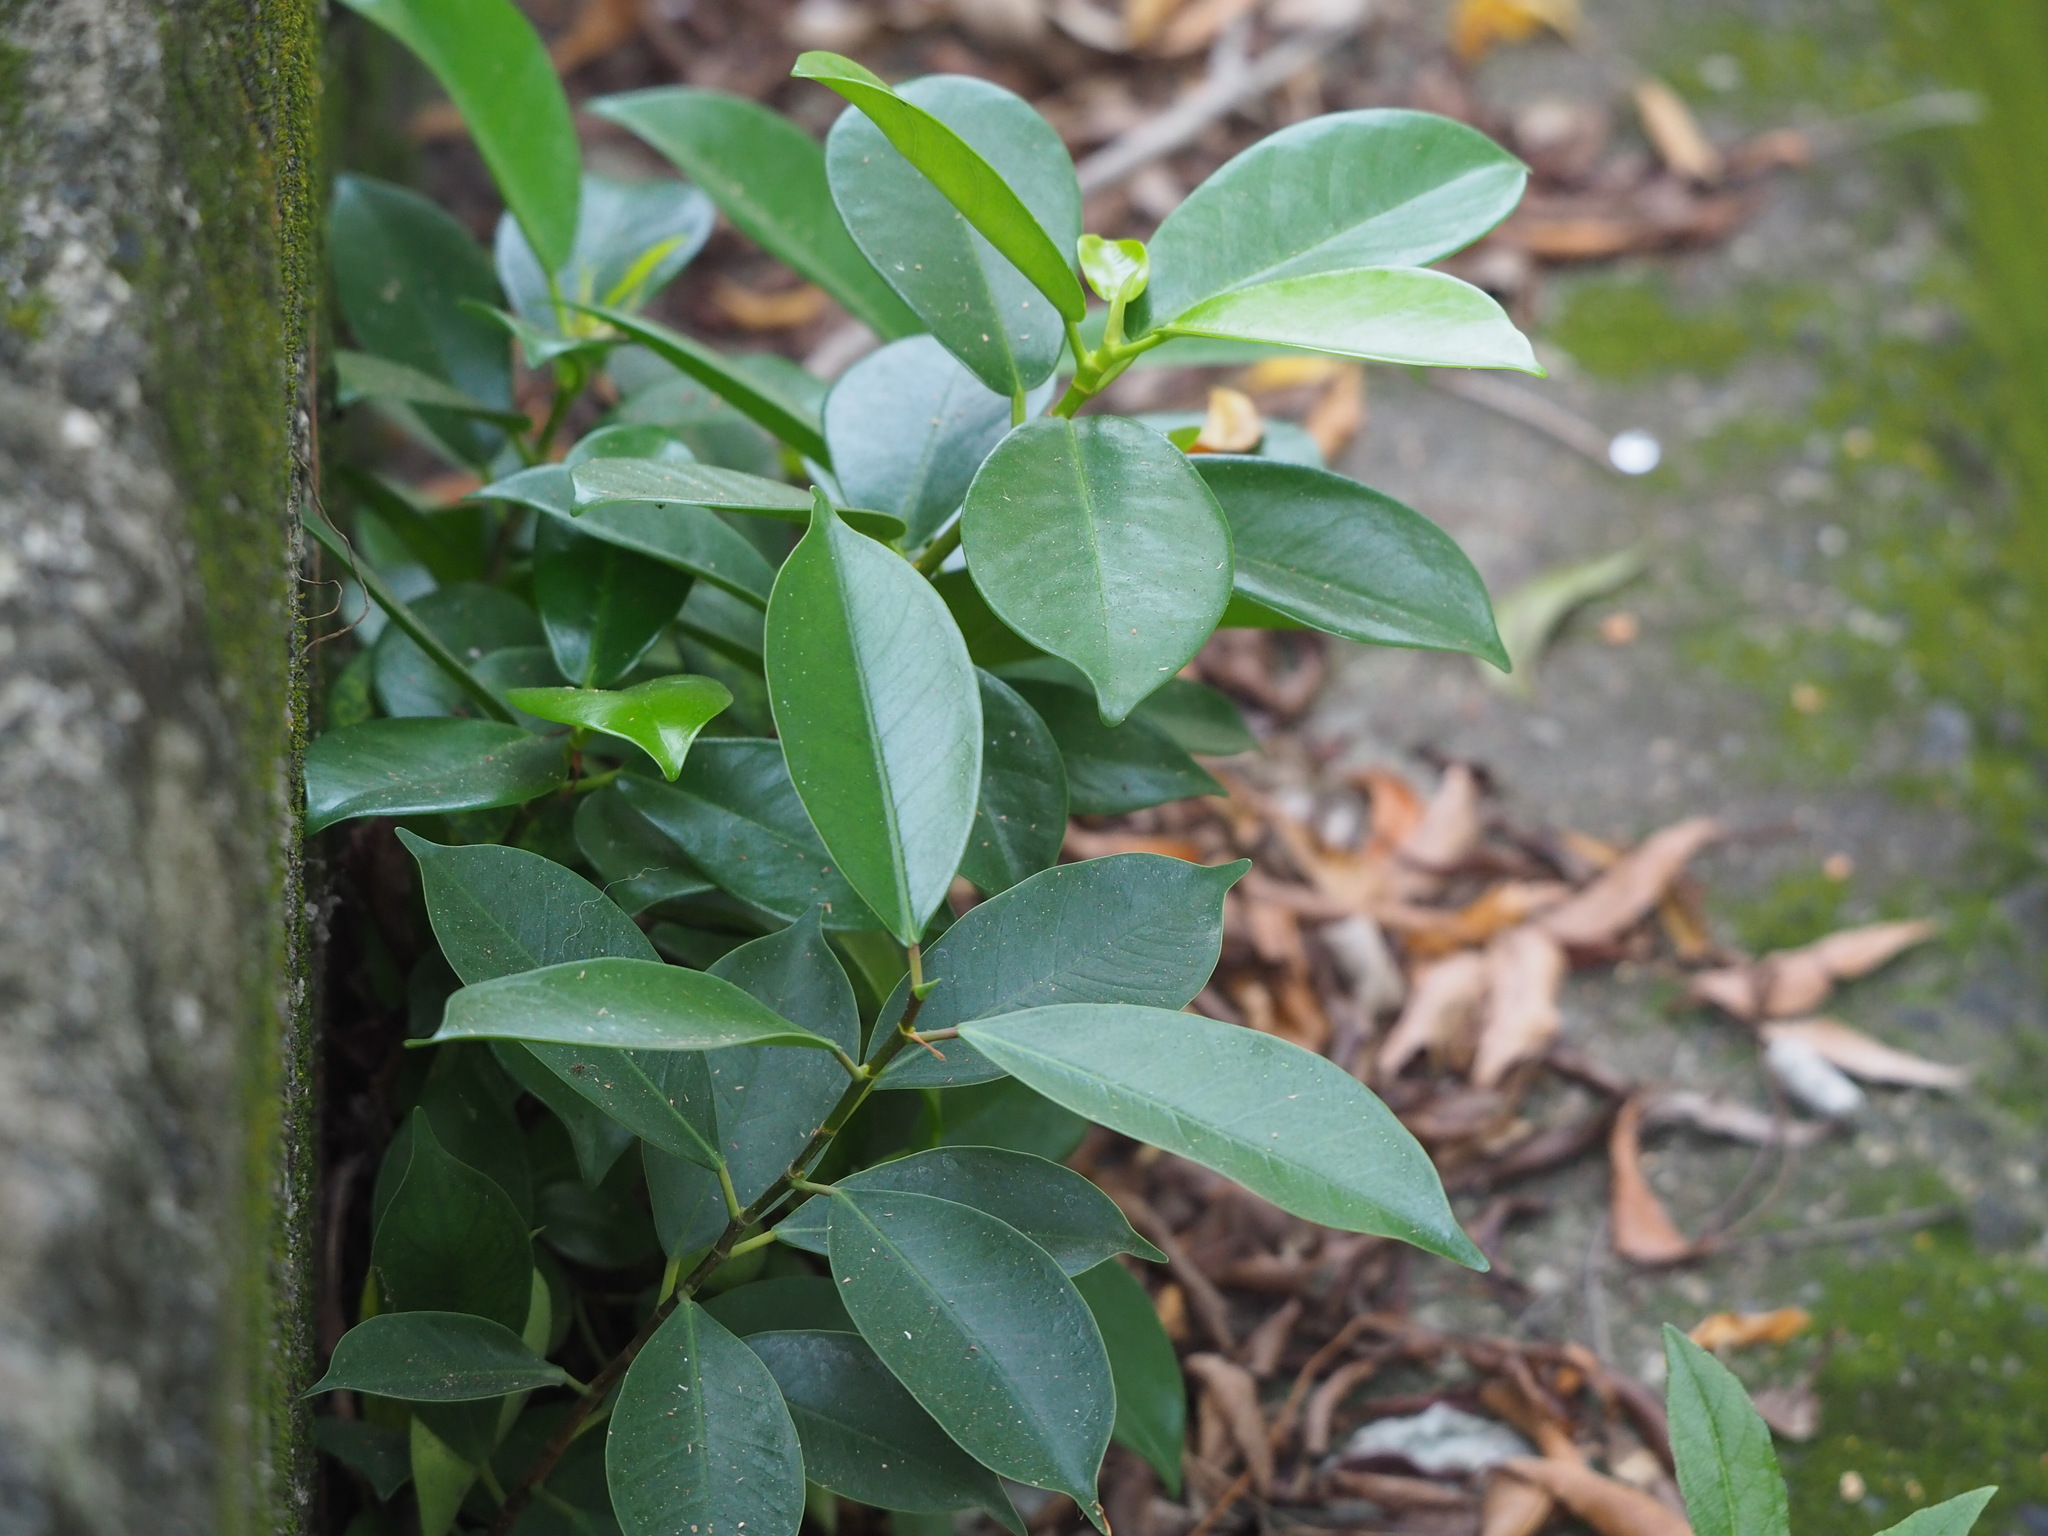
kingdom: Plantae
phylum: Tracheophyta
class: Magnoliopsida
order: Rosales
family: Moraceae
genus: Ficus
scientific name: Ficus microcarpa
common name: Chinese banyan
